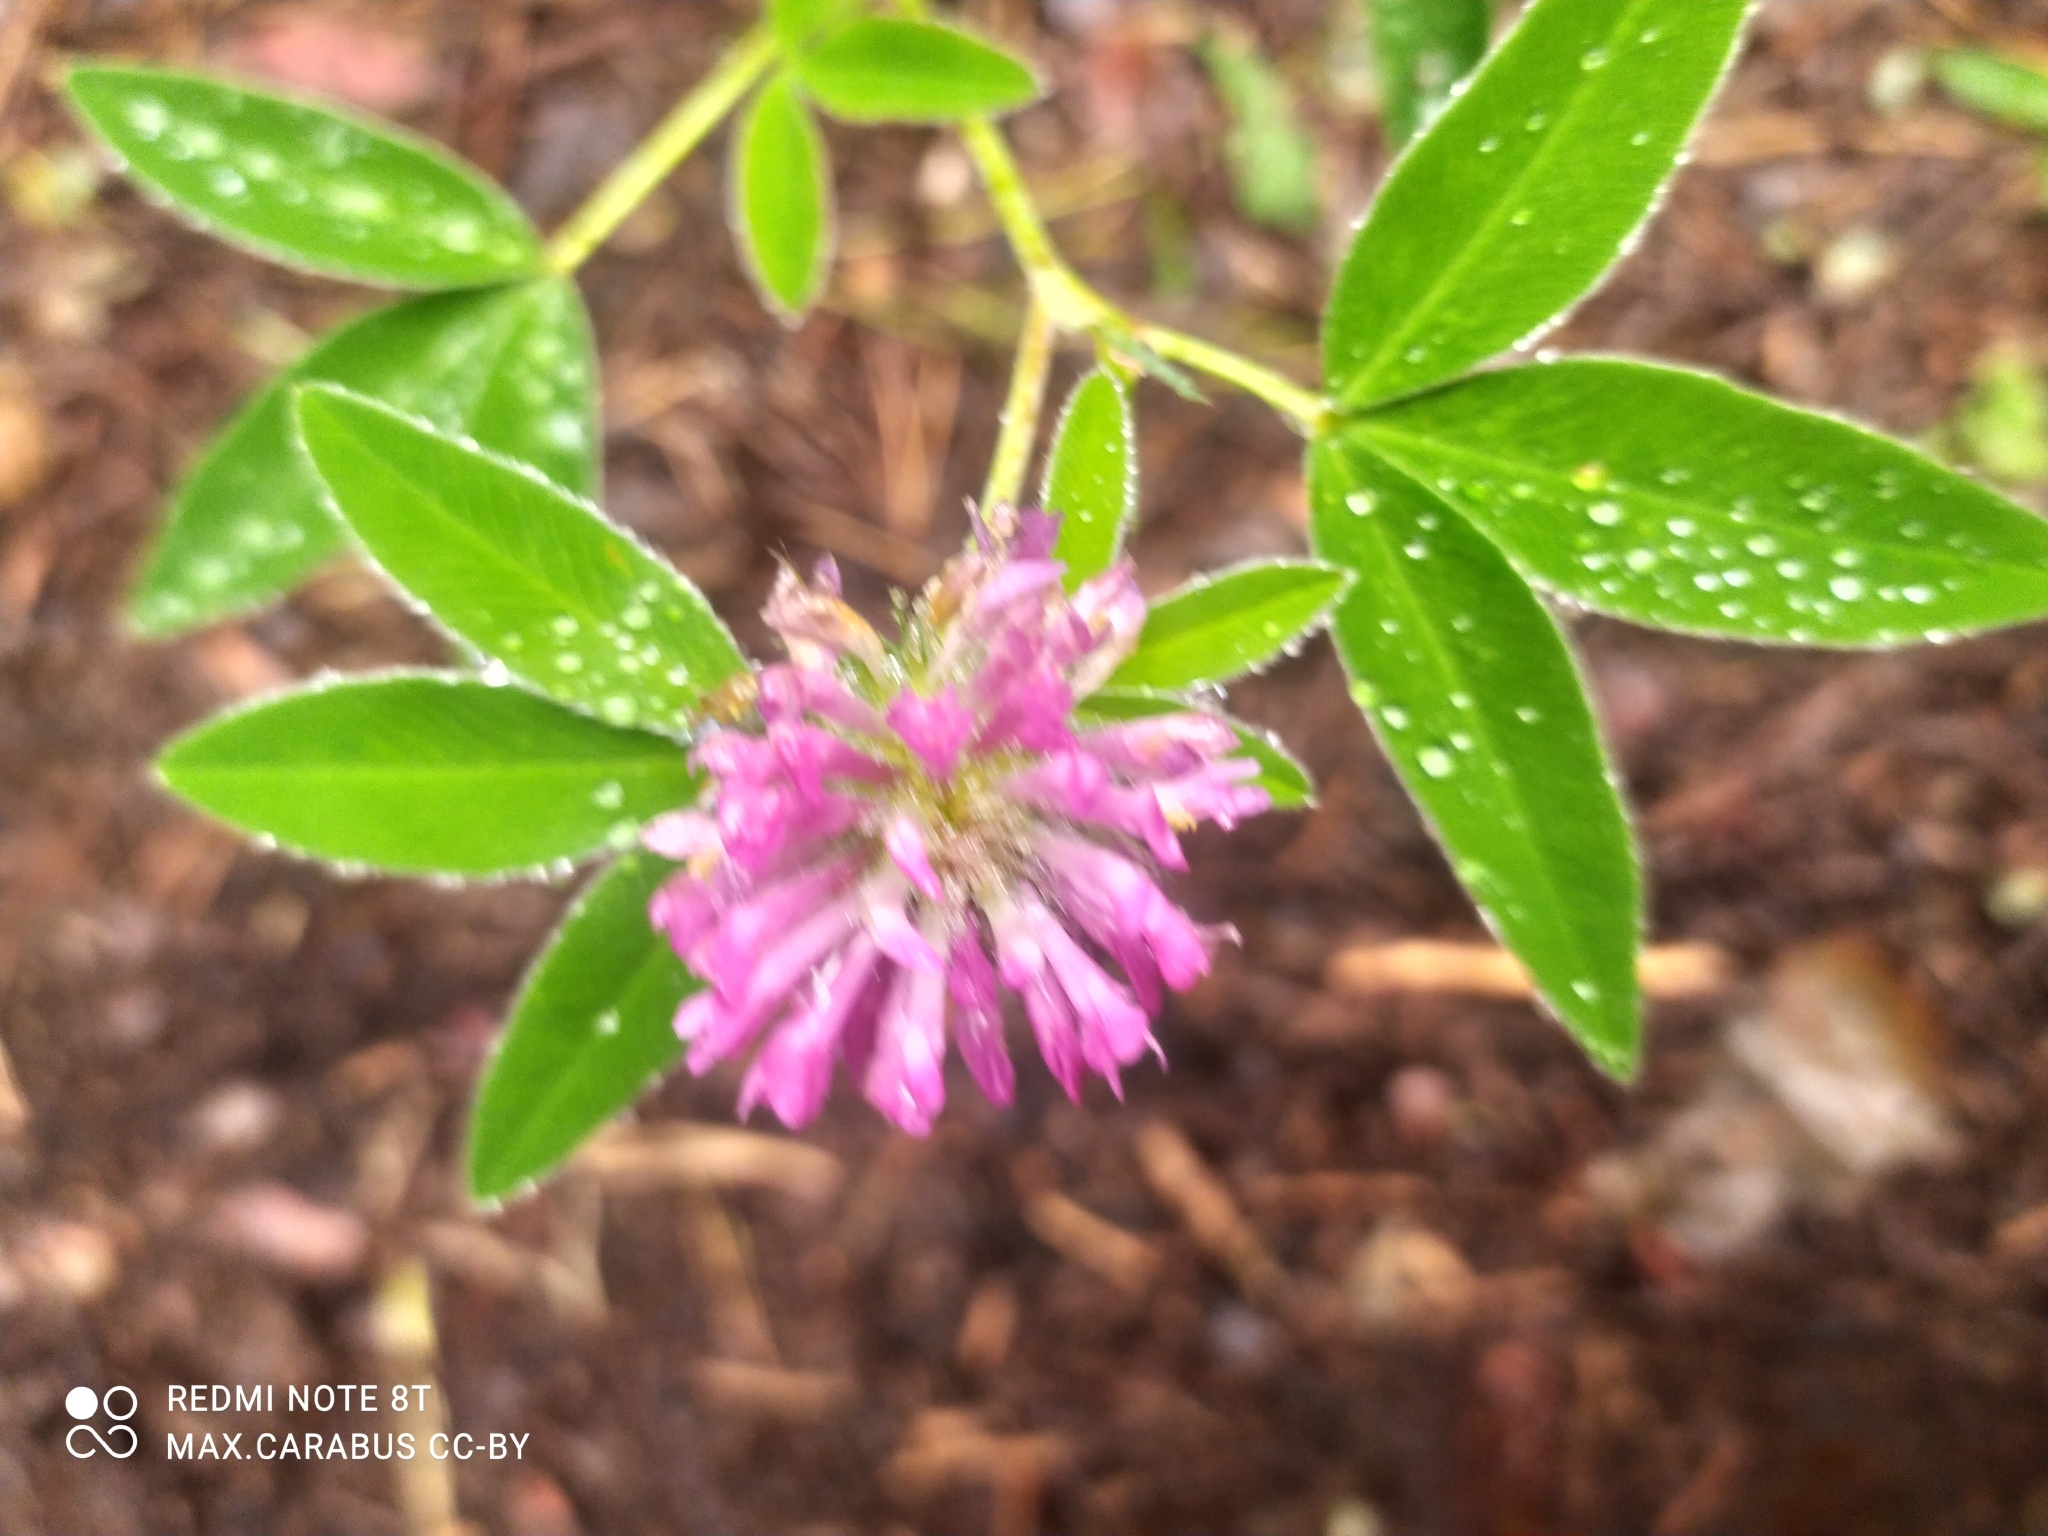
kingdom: Plantae
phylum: Tracheophyta
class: Magnoliopsida
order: Fabales
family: Fabaceae
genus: Trifolium
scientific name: Trifolium medium
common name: Zigzag clover
